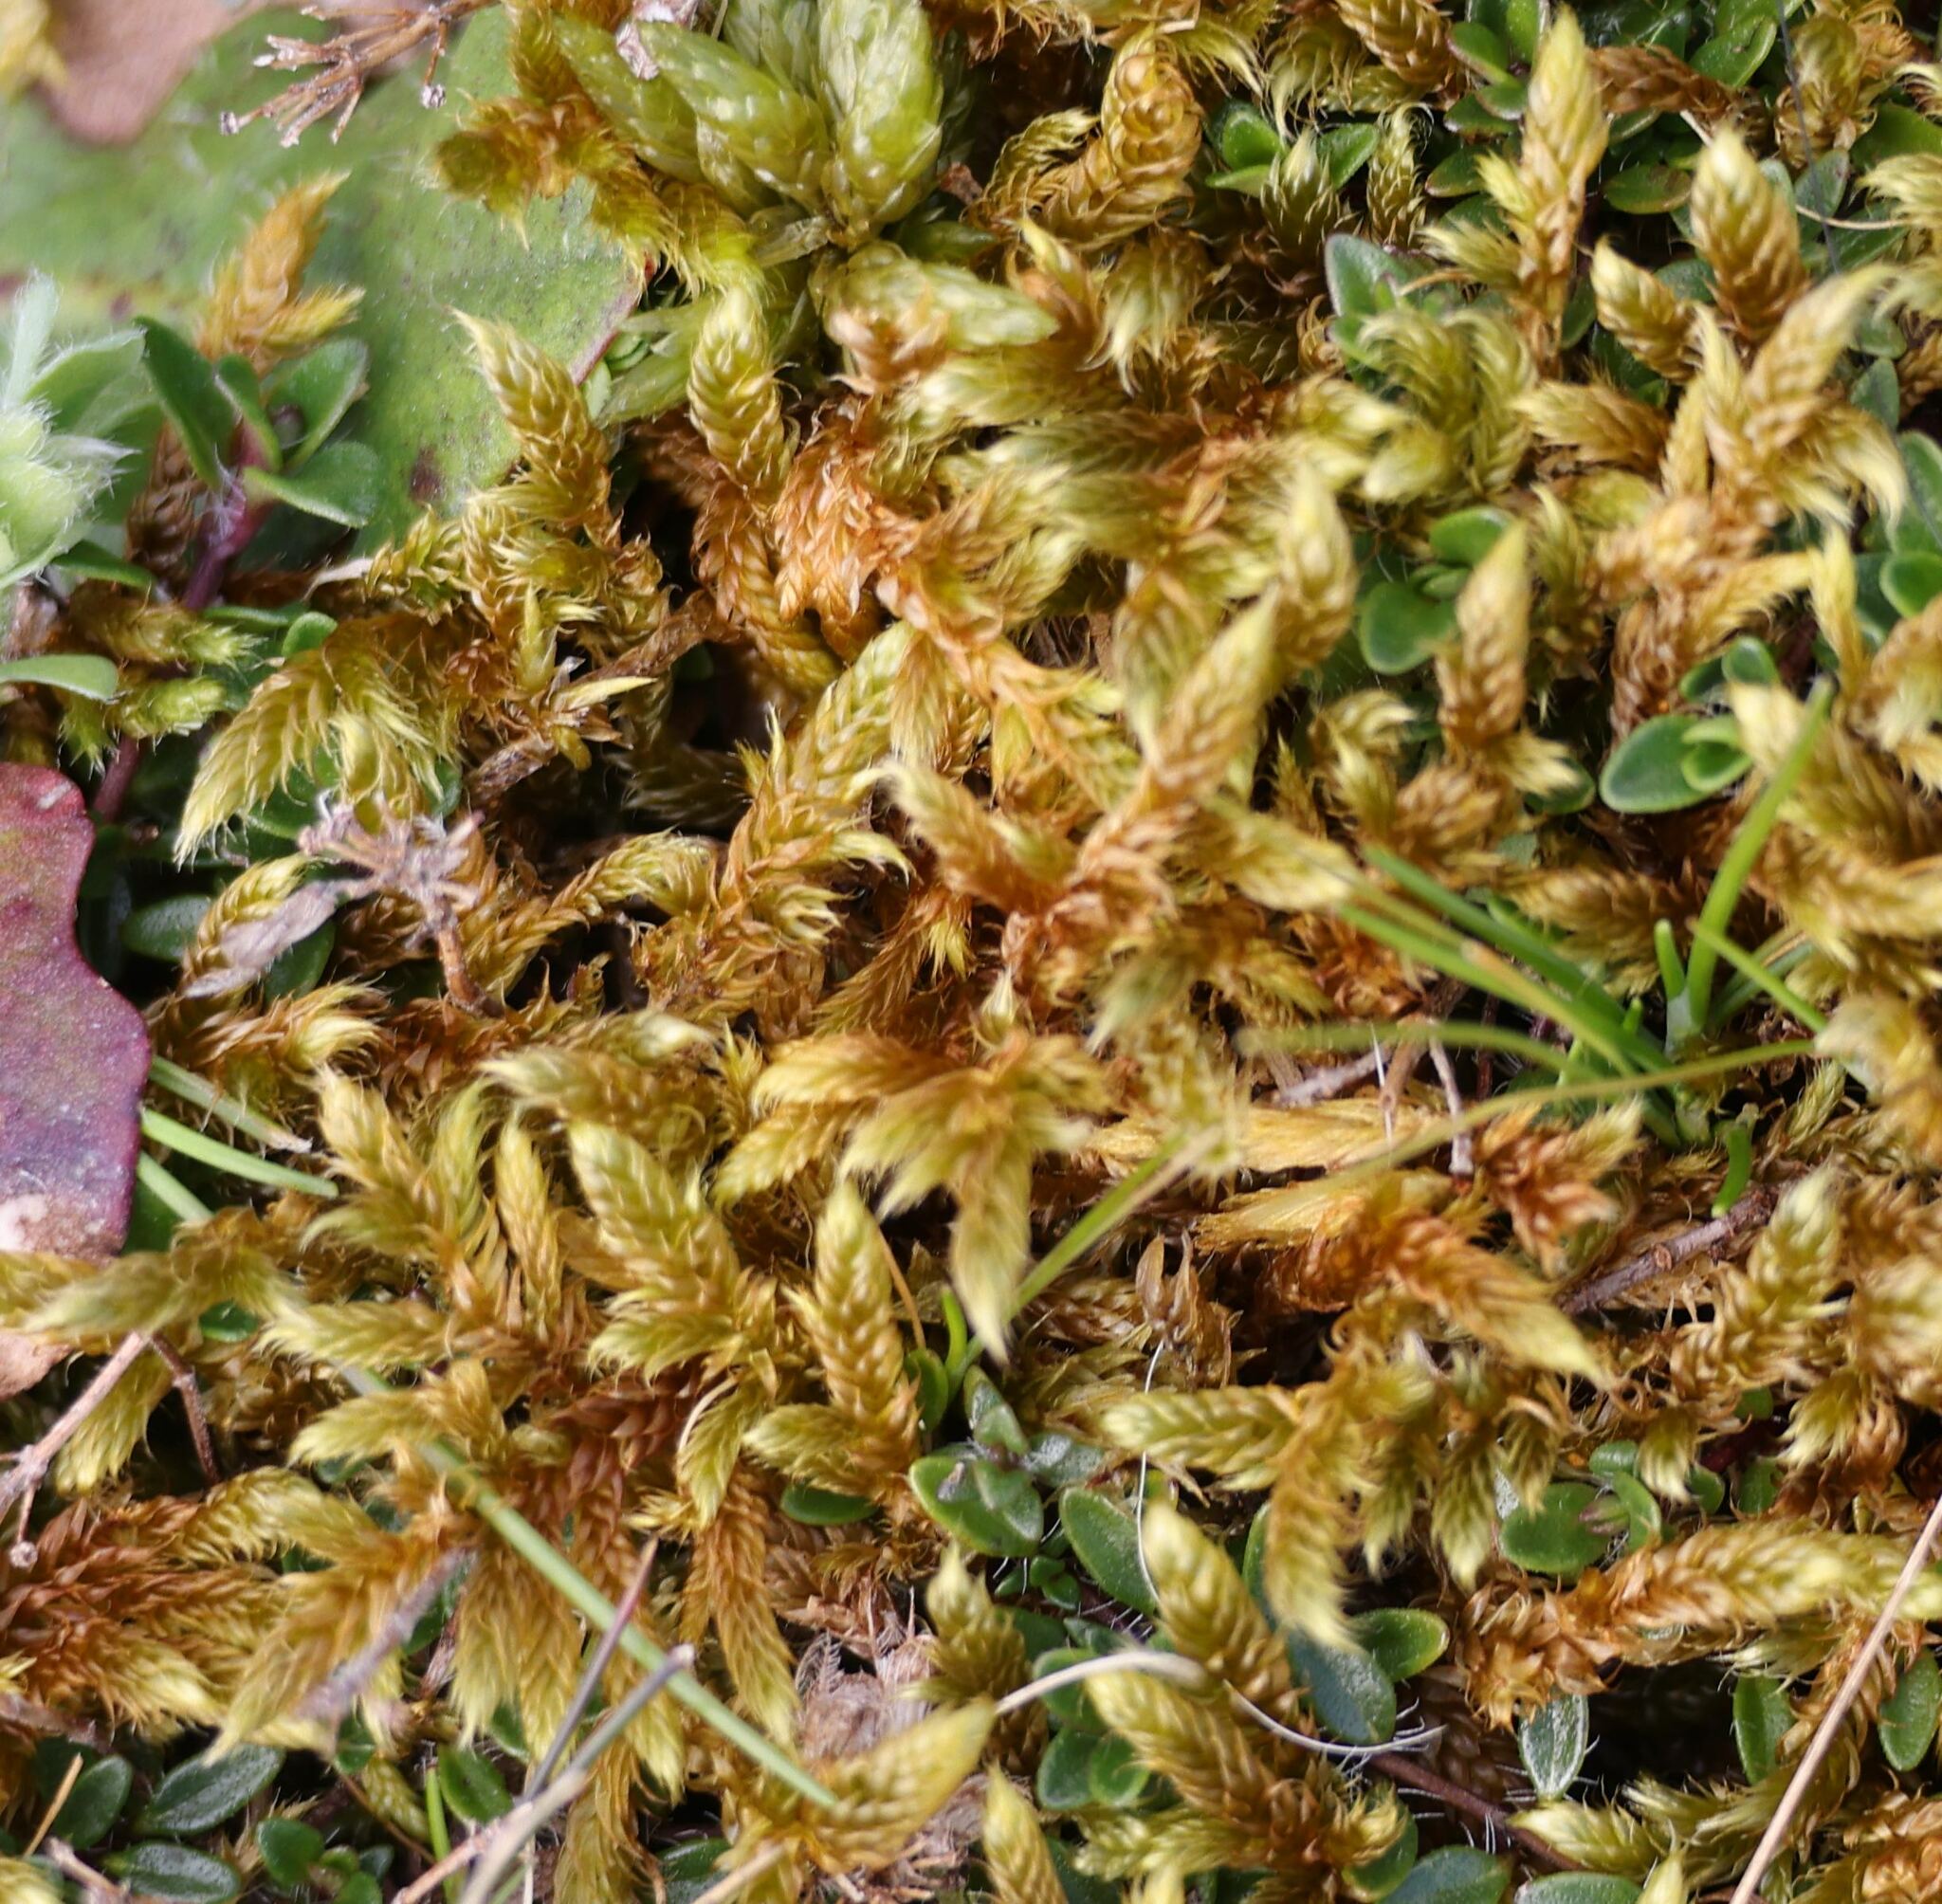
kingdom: Plantae
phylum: Bryophyta
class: Bryopsida
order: Hypnales
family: Hypnaceae
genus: Hypnum
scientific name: Hypnum cupressiforme
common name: Cypress-leaved plait-moss
